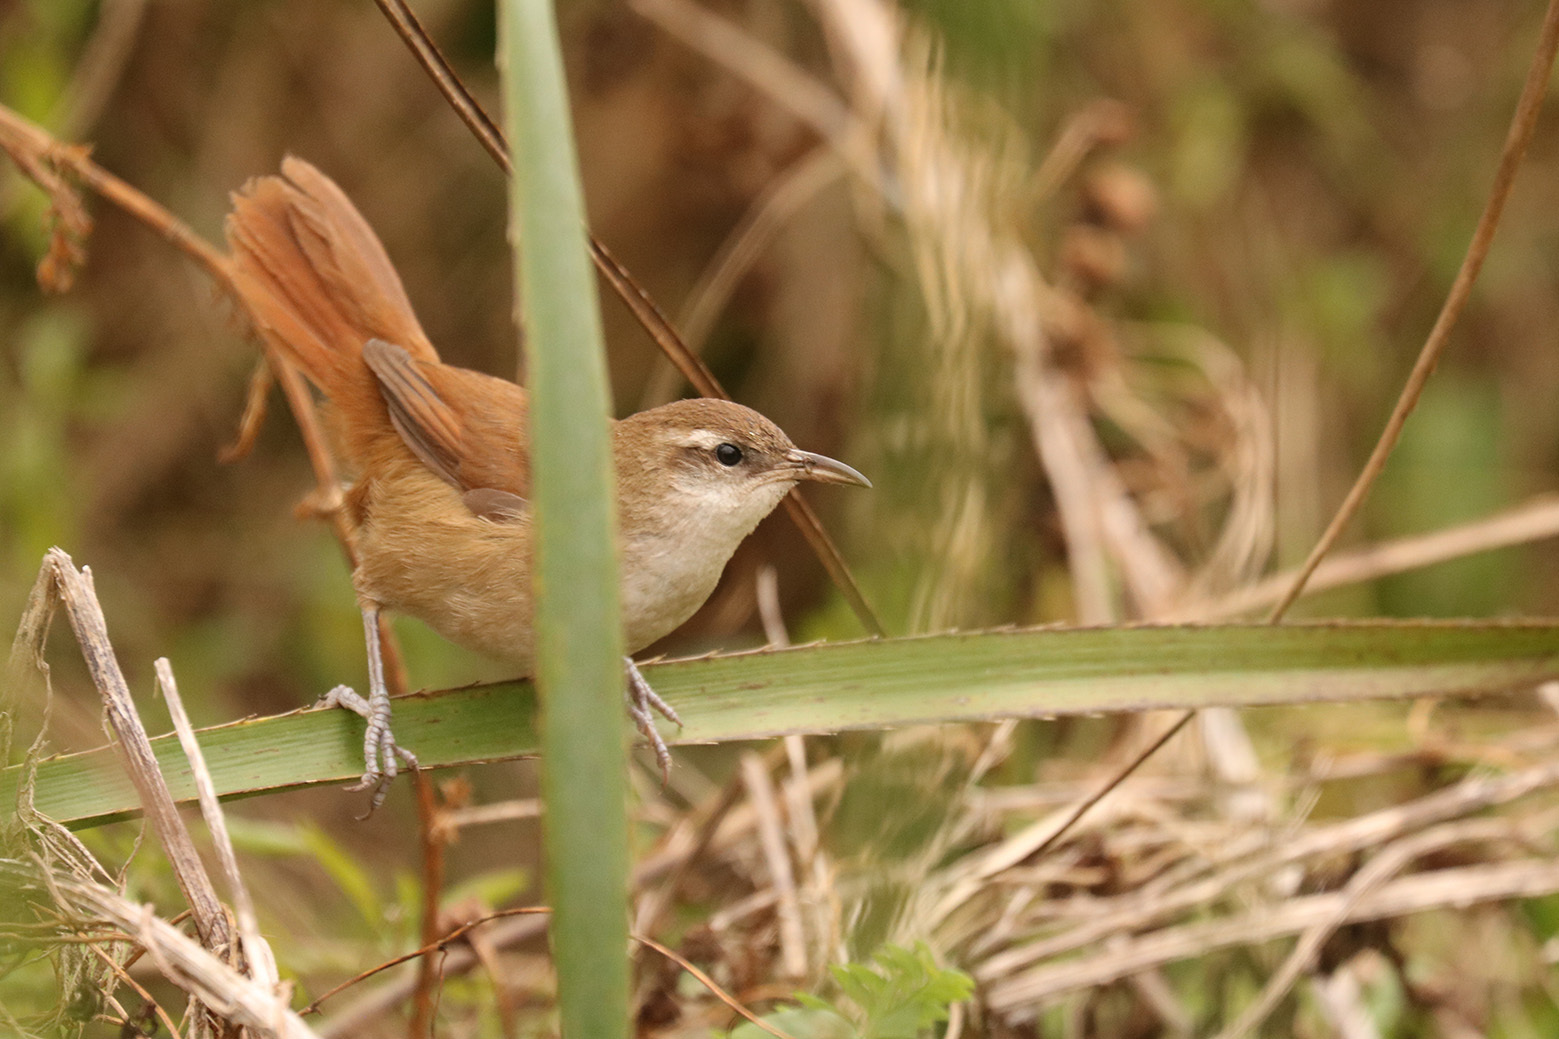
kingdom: Animalia
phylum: Chordata
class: Aves
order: Passeriformes
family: Furnariidae
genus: Limnornis
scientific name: Limnornis curvirostris
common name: Curve-billed reedhaunter
